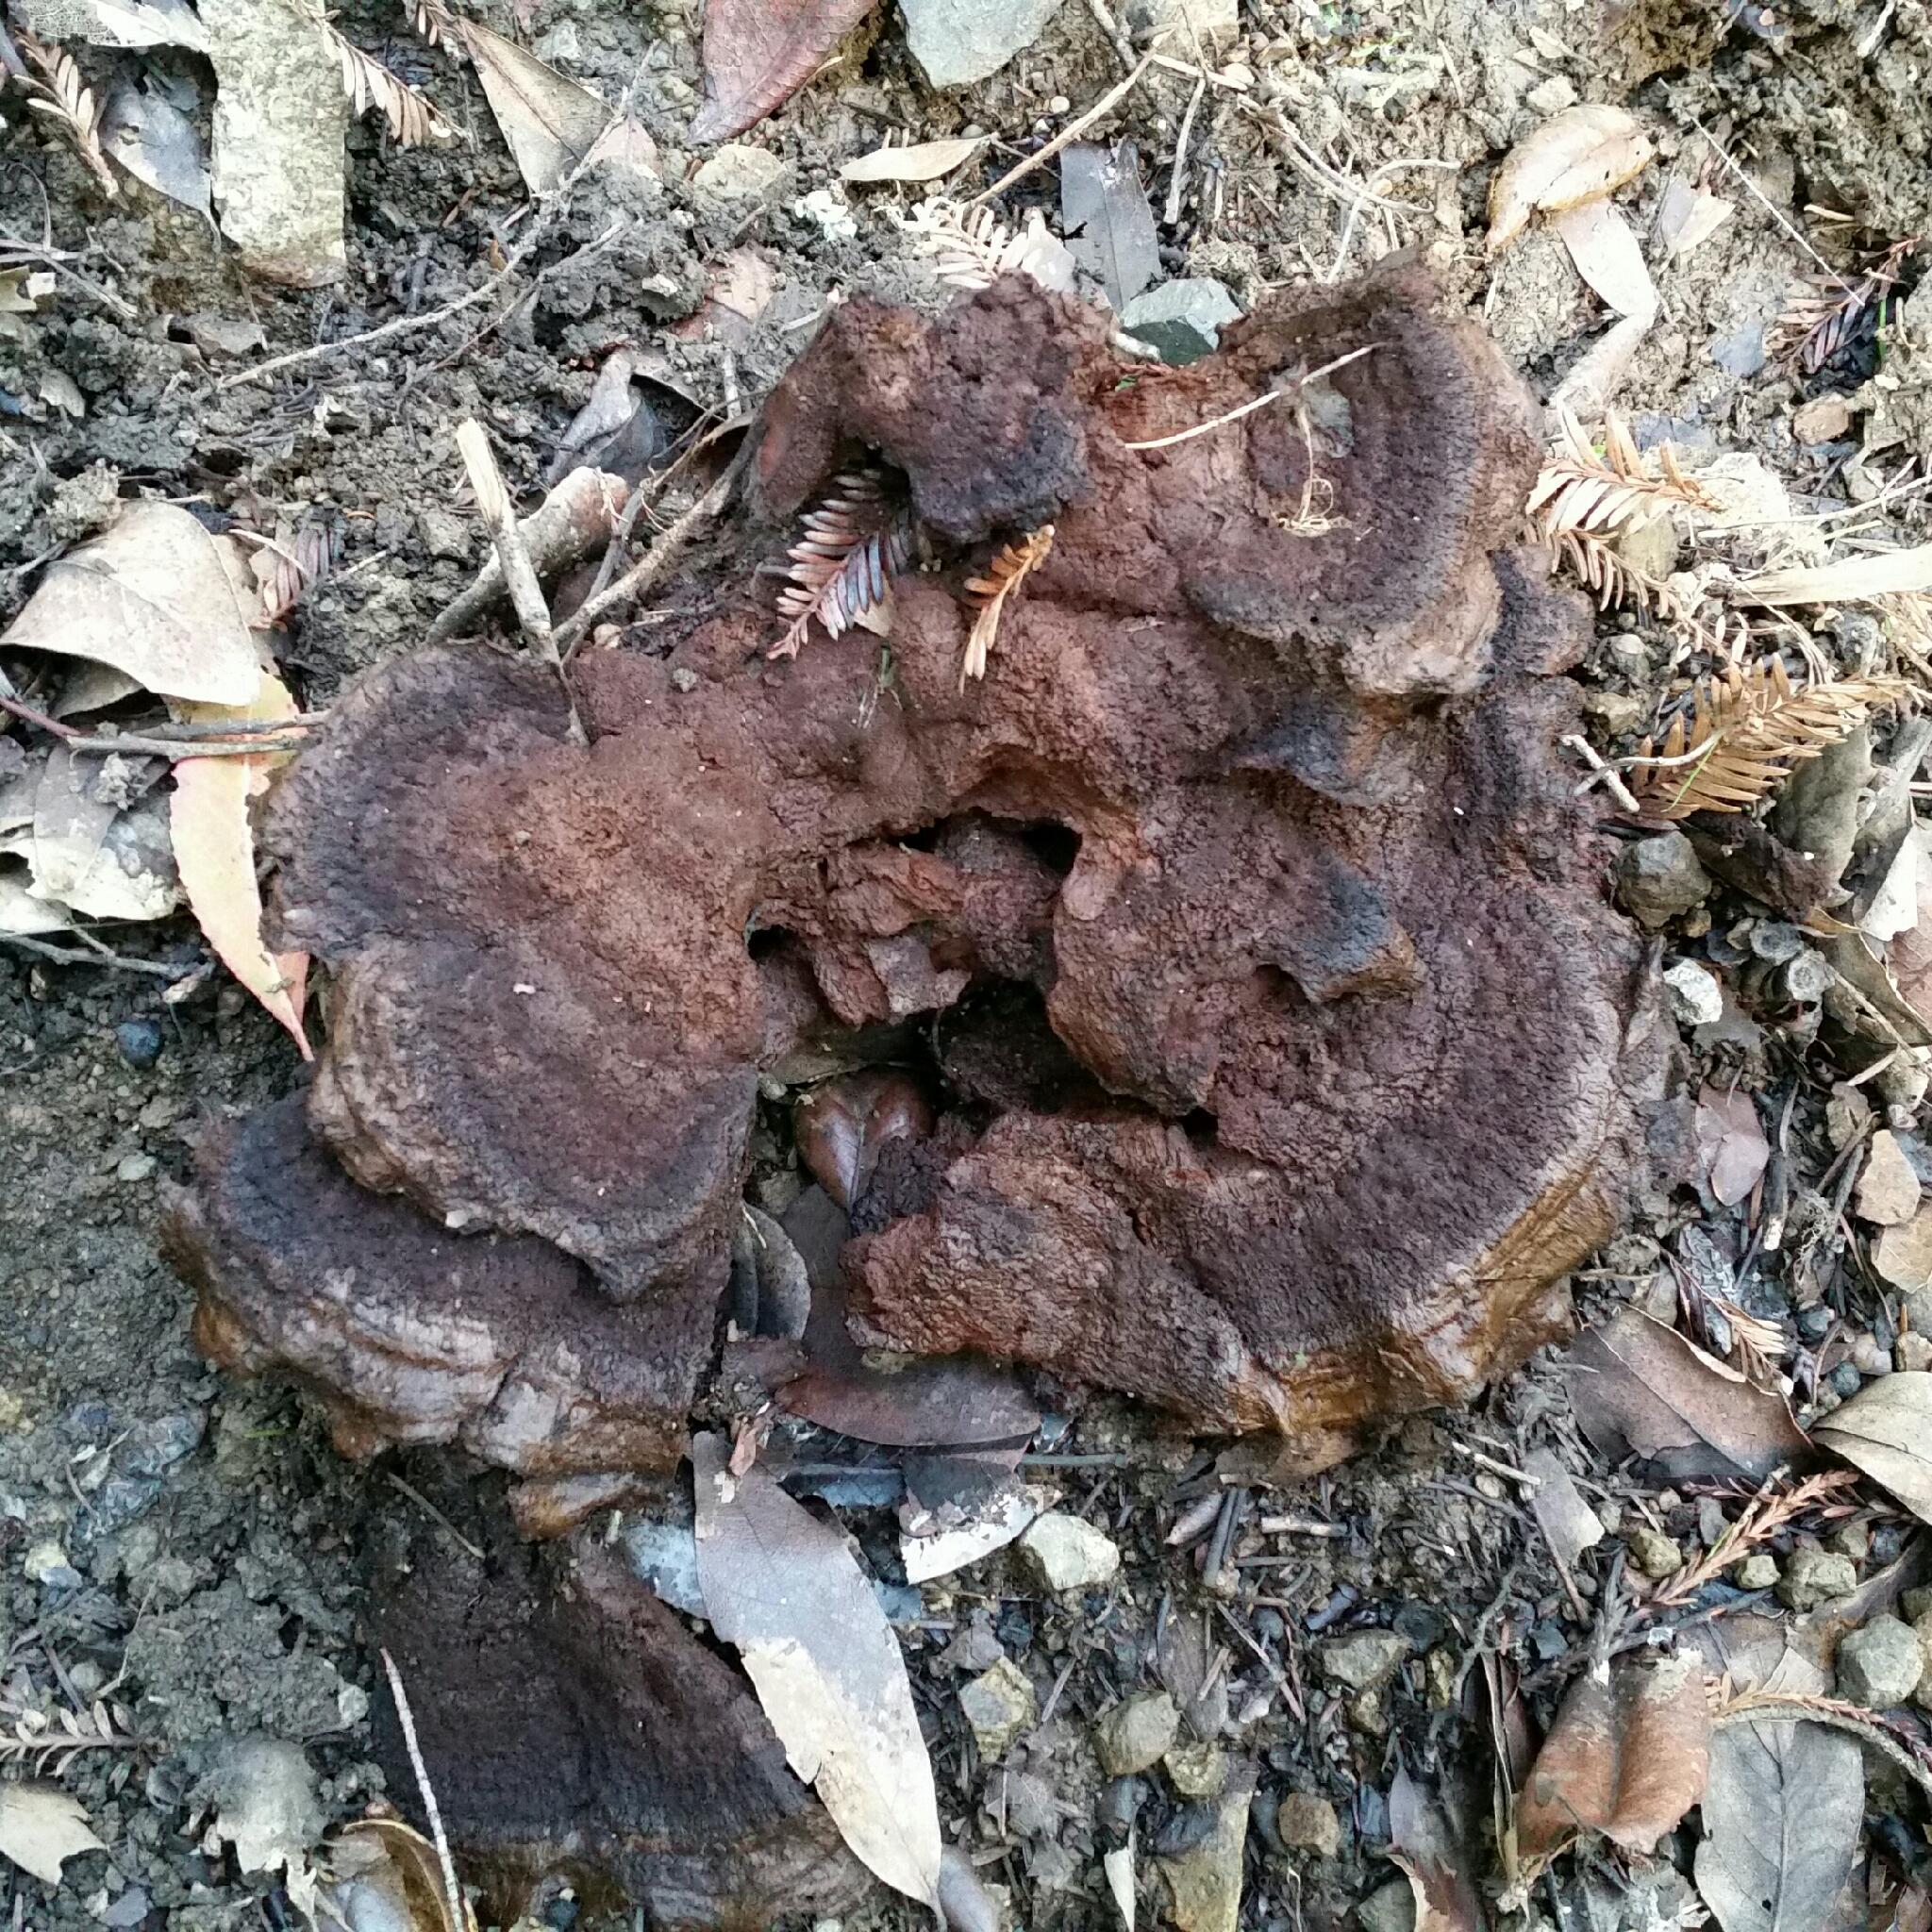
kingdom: Fungi
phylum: Basidiomycota
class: Agaricomycetes
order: Polyporales
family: Laetiporaceae
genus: Phaeolus
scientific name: Phaeolus schweinitzii
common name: Dyer's mazegill
